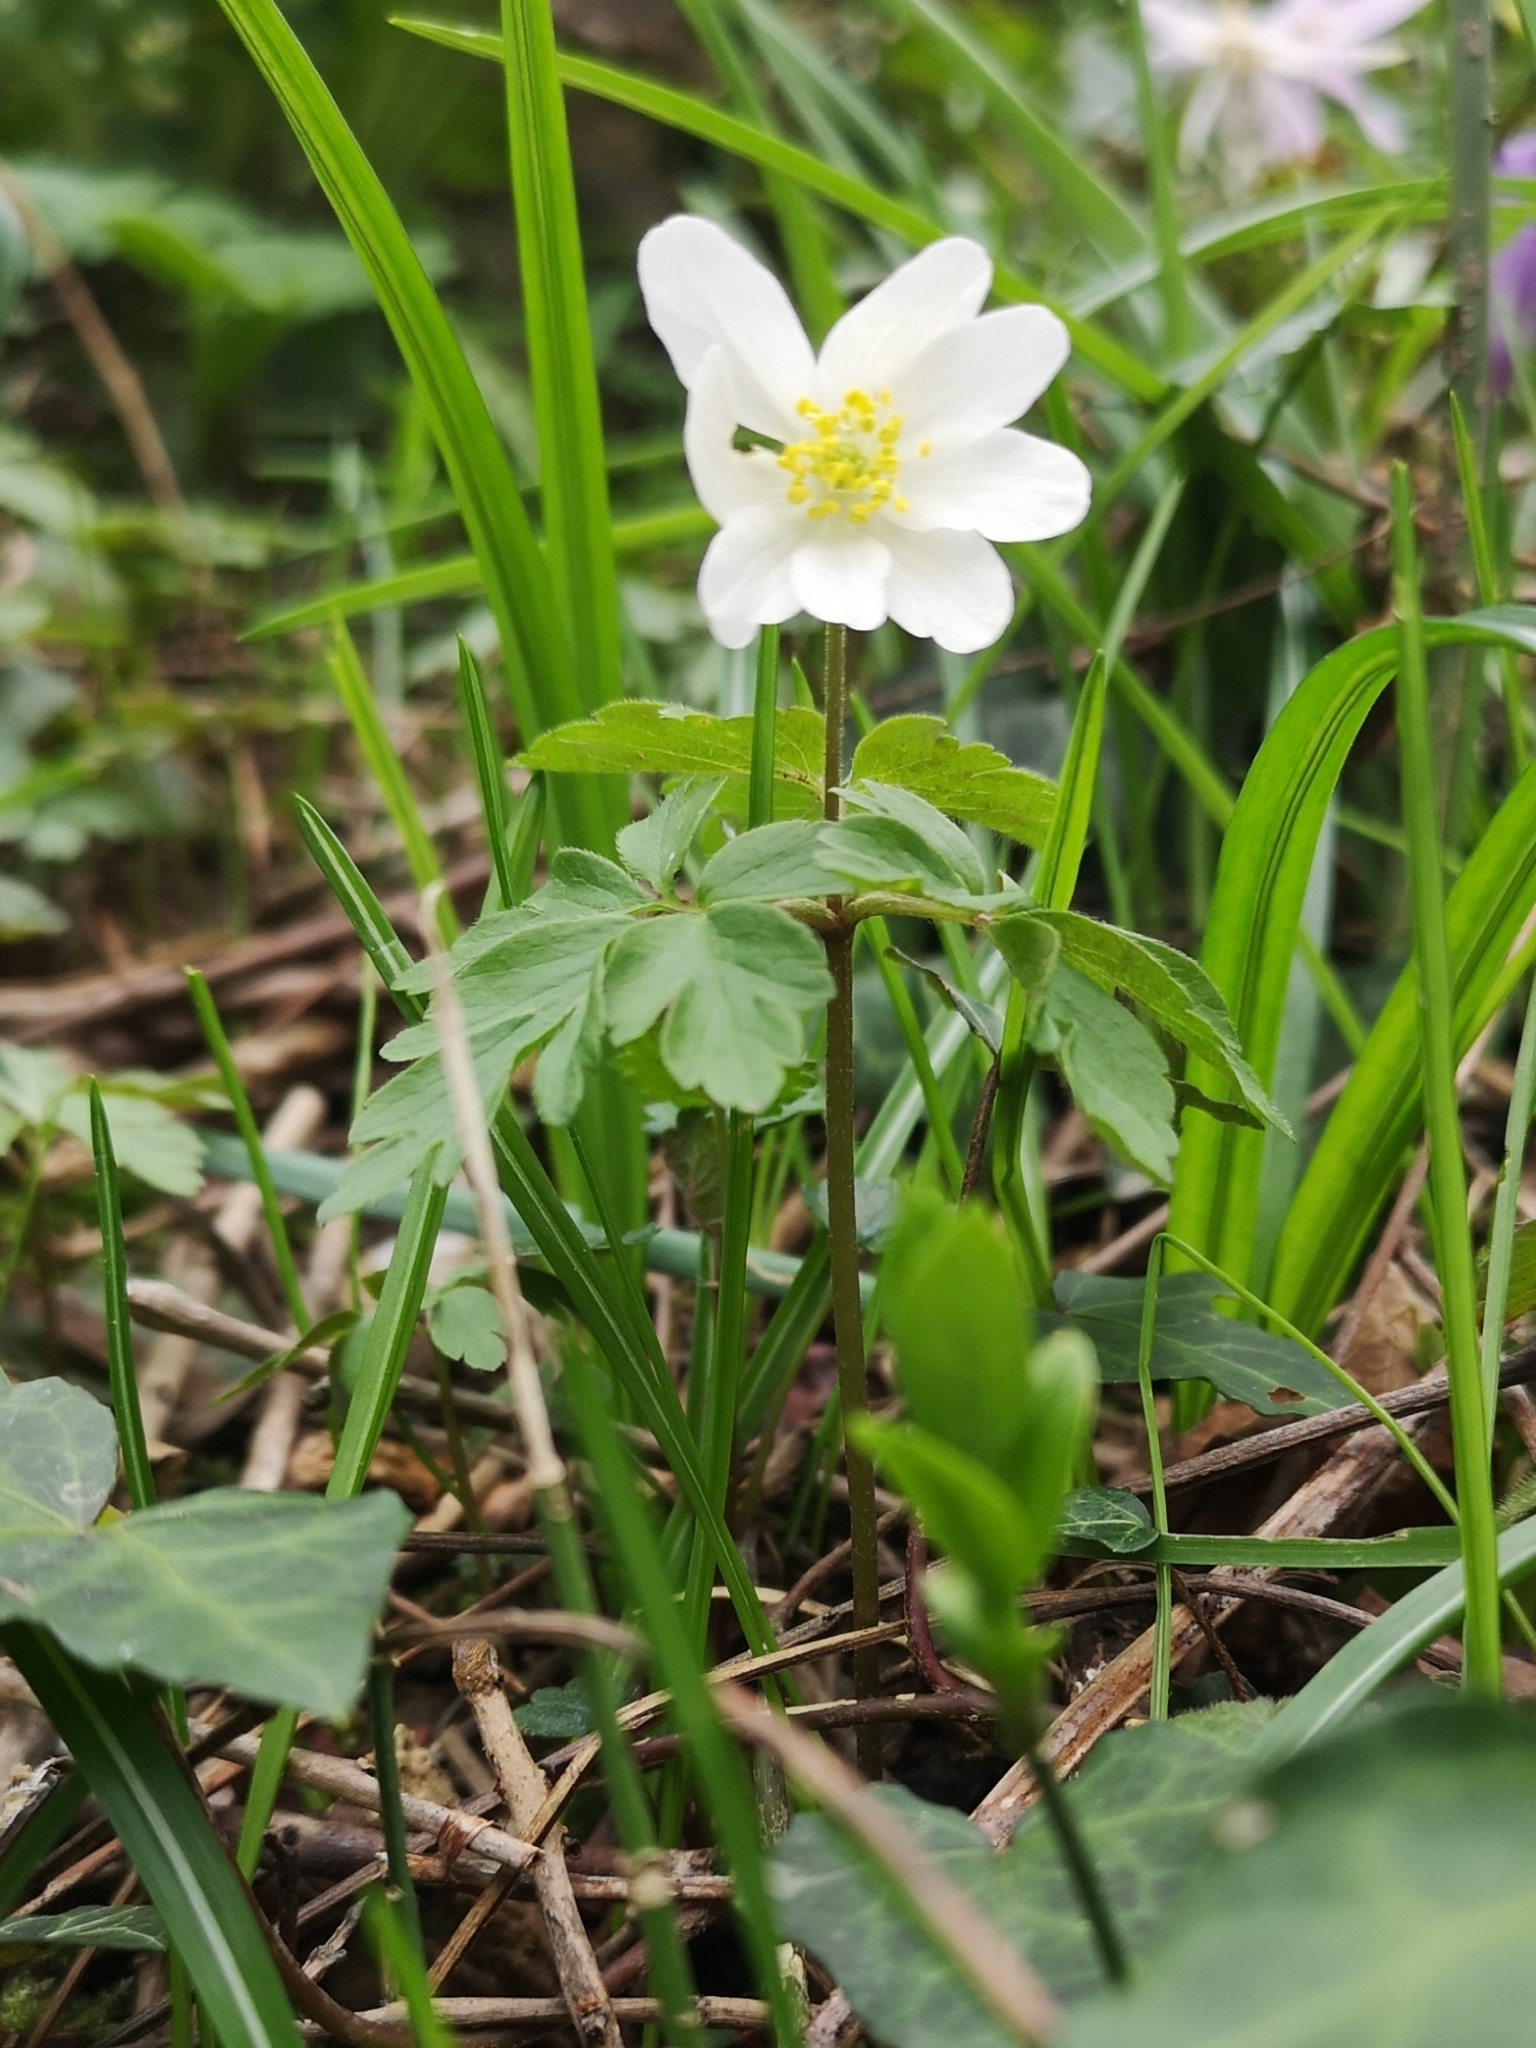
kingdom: Plantae
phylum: Tracheophyta
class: Magnoliopsida
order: Ranunculales
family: Ranunculaceae
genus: Anemone
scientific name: Anemone nemorosa
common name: Wood anemone
